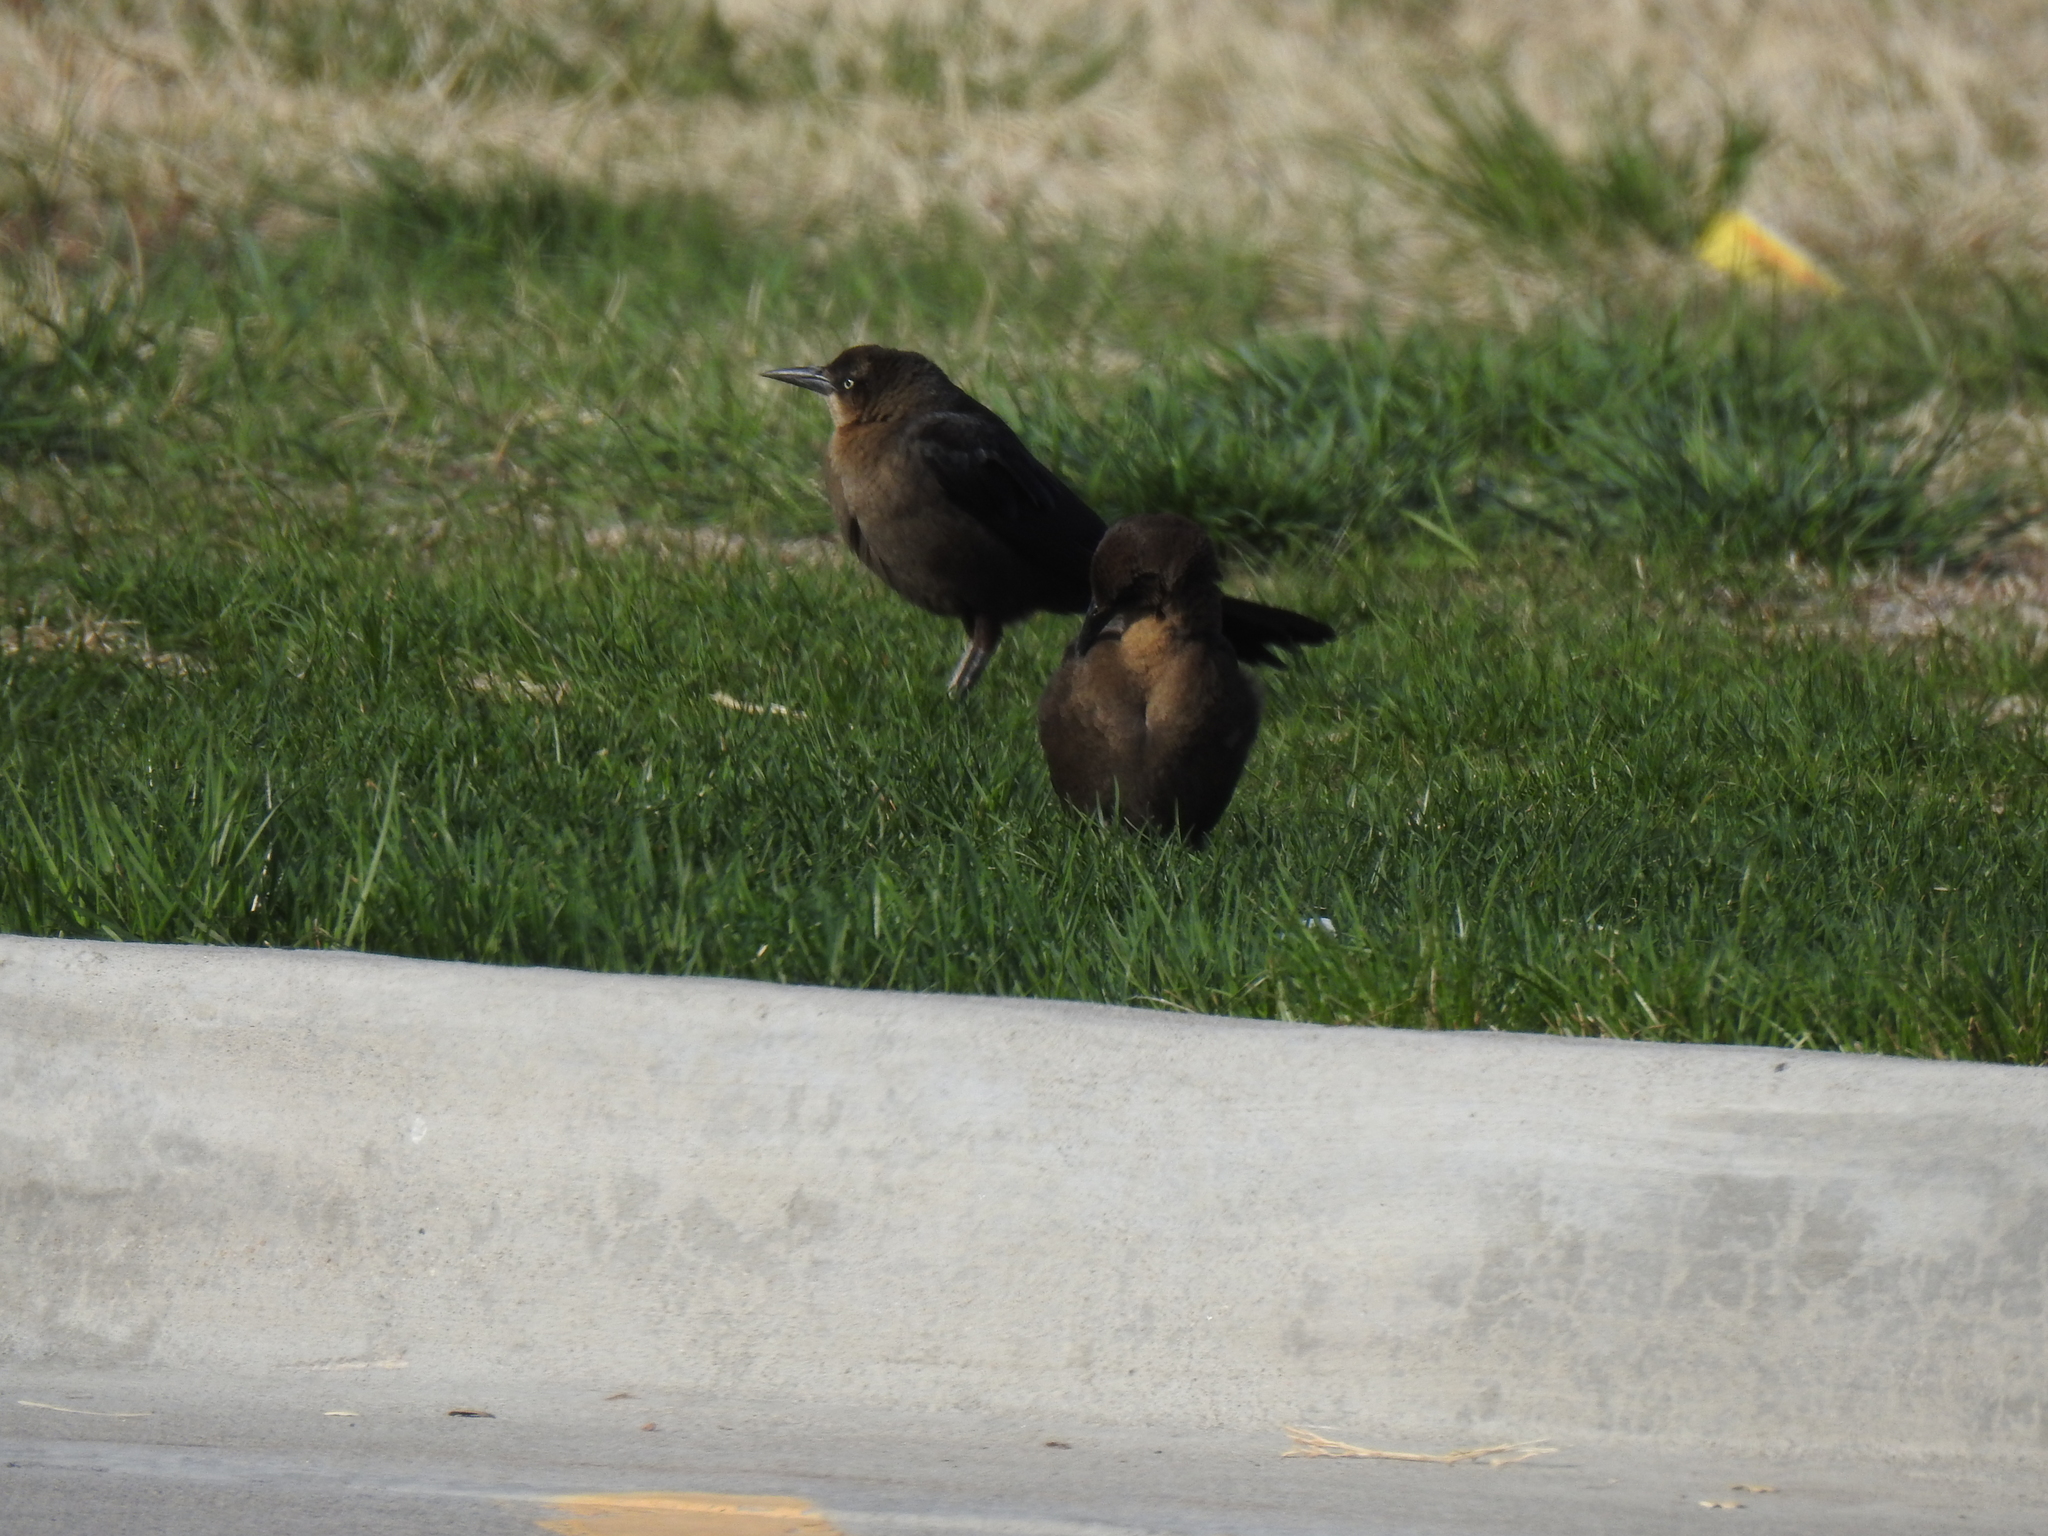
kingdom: Animalia
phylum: Chordata
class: Aves
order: Passeriformes
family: Icteridae
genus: Quiscalus
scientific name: Quiscalus mexicanus
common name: Great-tailed grackle
